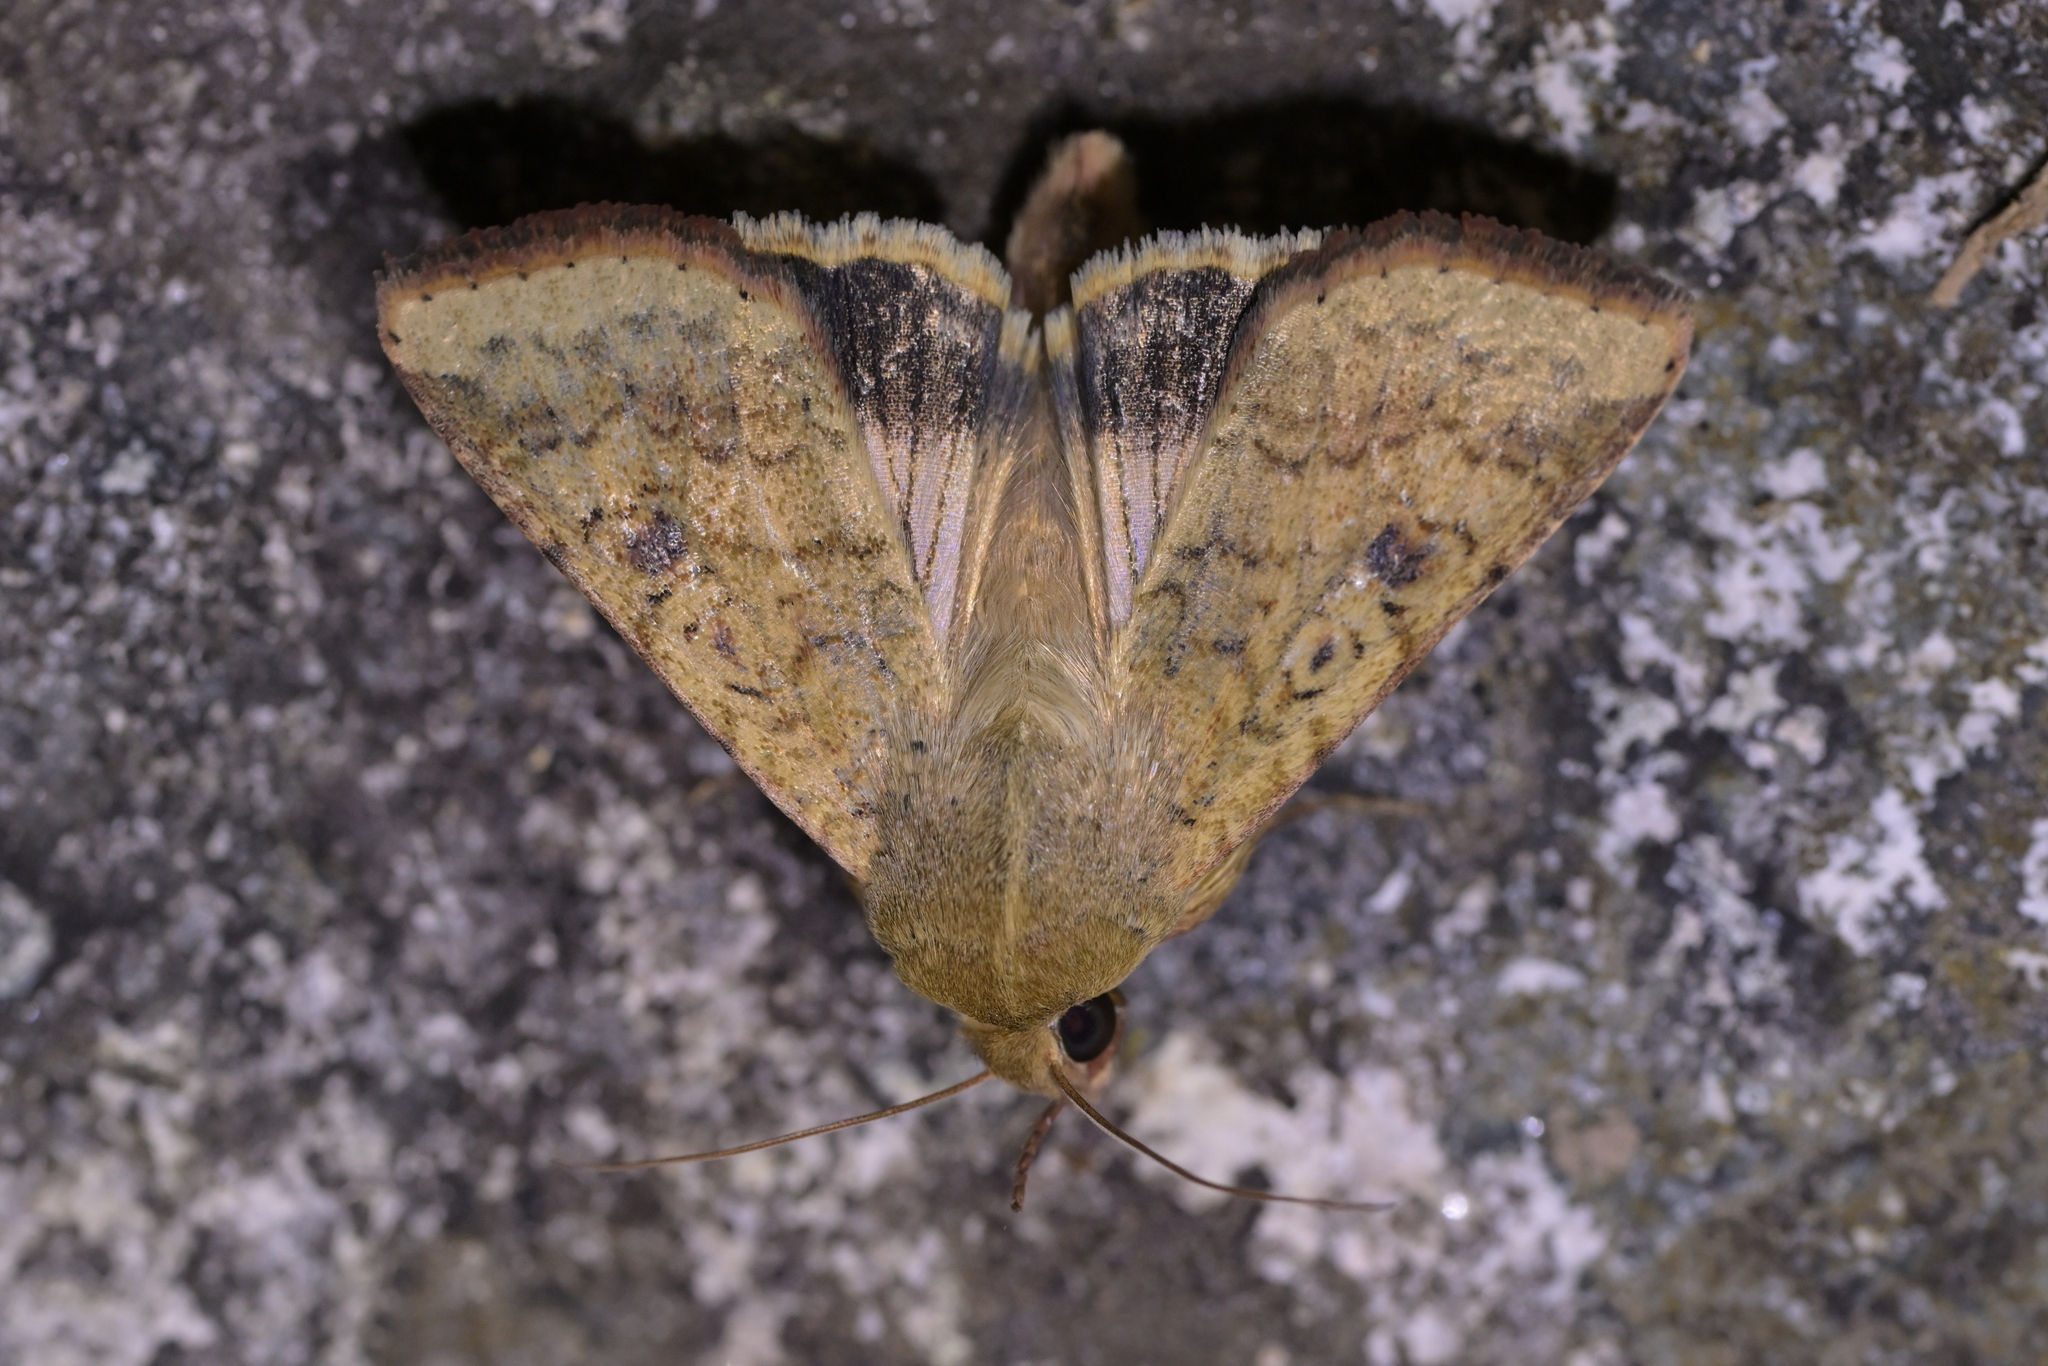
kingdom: Animalia
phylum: Arthropoda
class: Insecta
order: Lepidoptera
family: Noctuidae
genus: Helicoverpa
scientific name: Helicoverpa armigera
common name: Cotton bollworm
